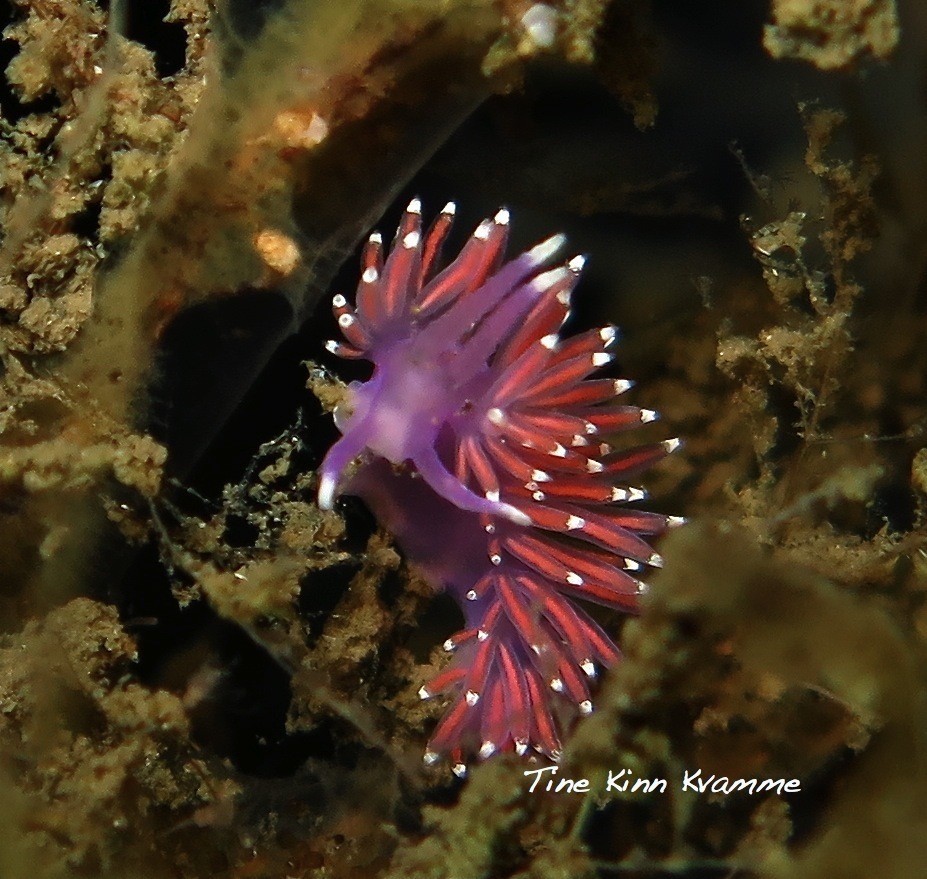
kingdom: Animalia
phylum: Mollusca
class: Gastropoda
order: Nudibranchia
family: Flabellinidae
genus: Edmundsella
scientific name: Edmundsella pedata
